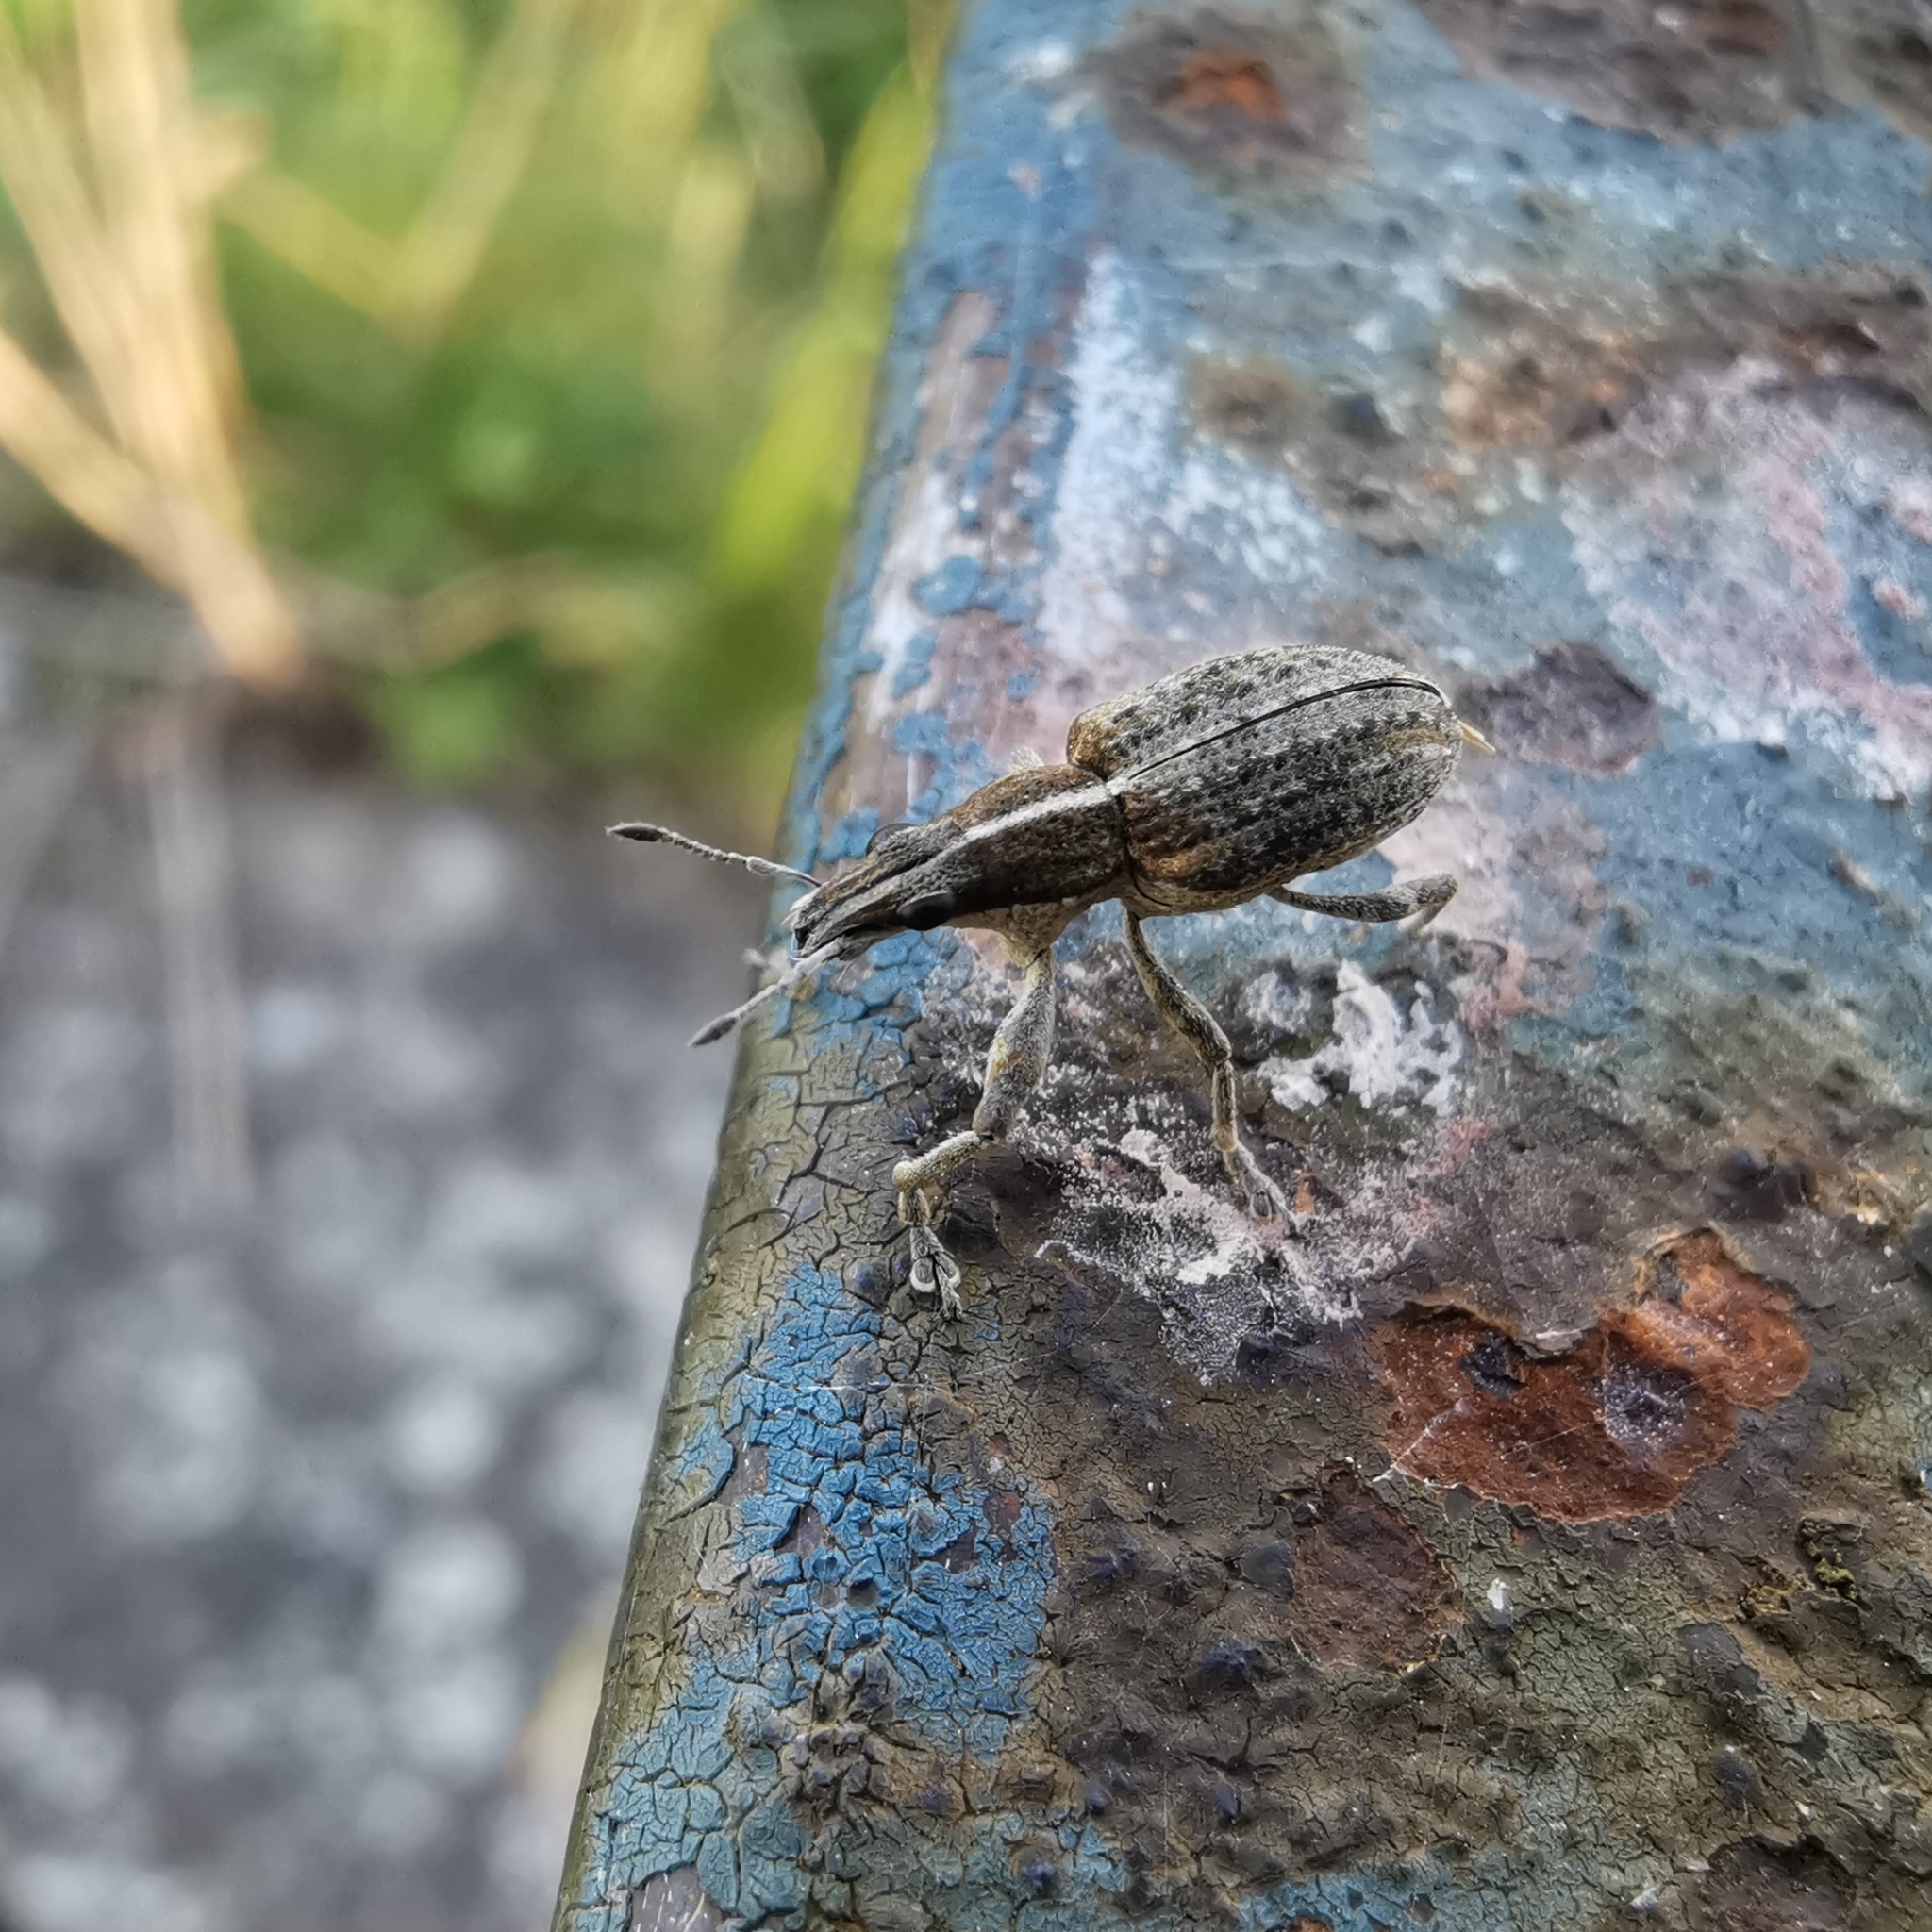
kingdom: Animalia
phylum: Arthropoda
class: Insecta
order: Coleoptera
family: Curculionidae
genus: Charagmus
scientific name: Charagmus gressorius
